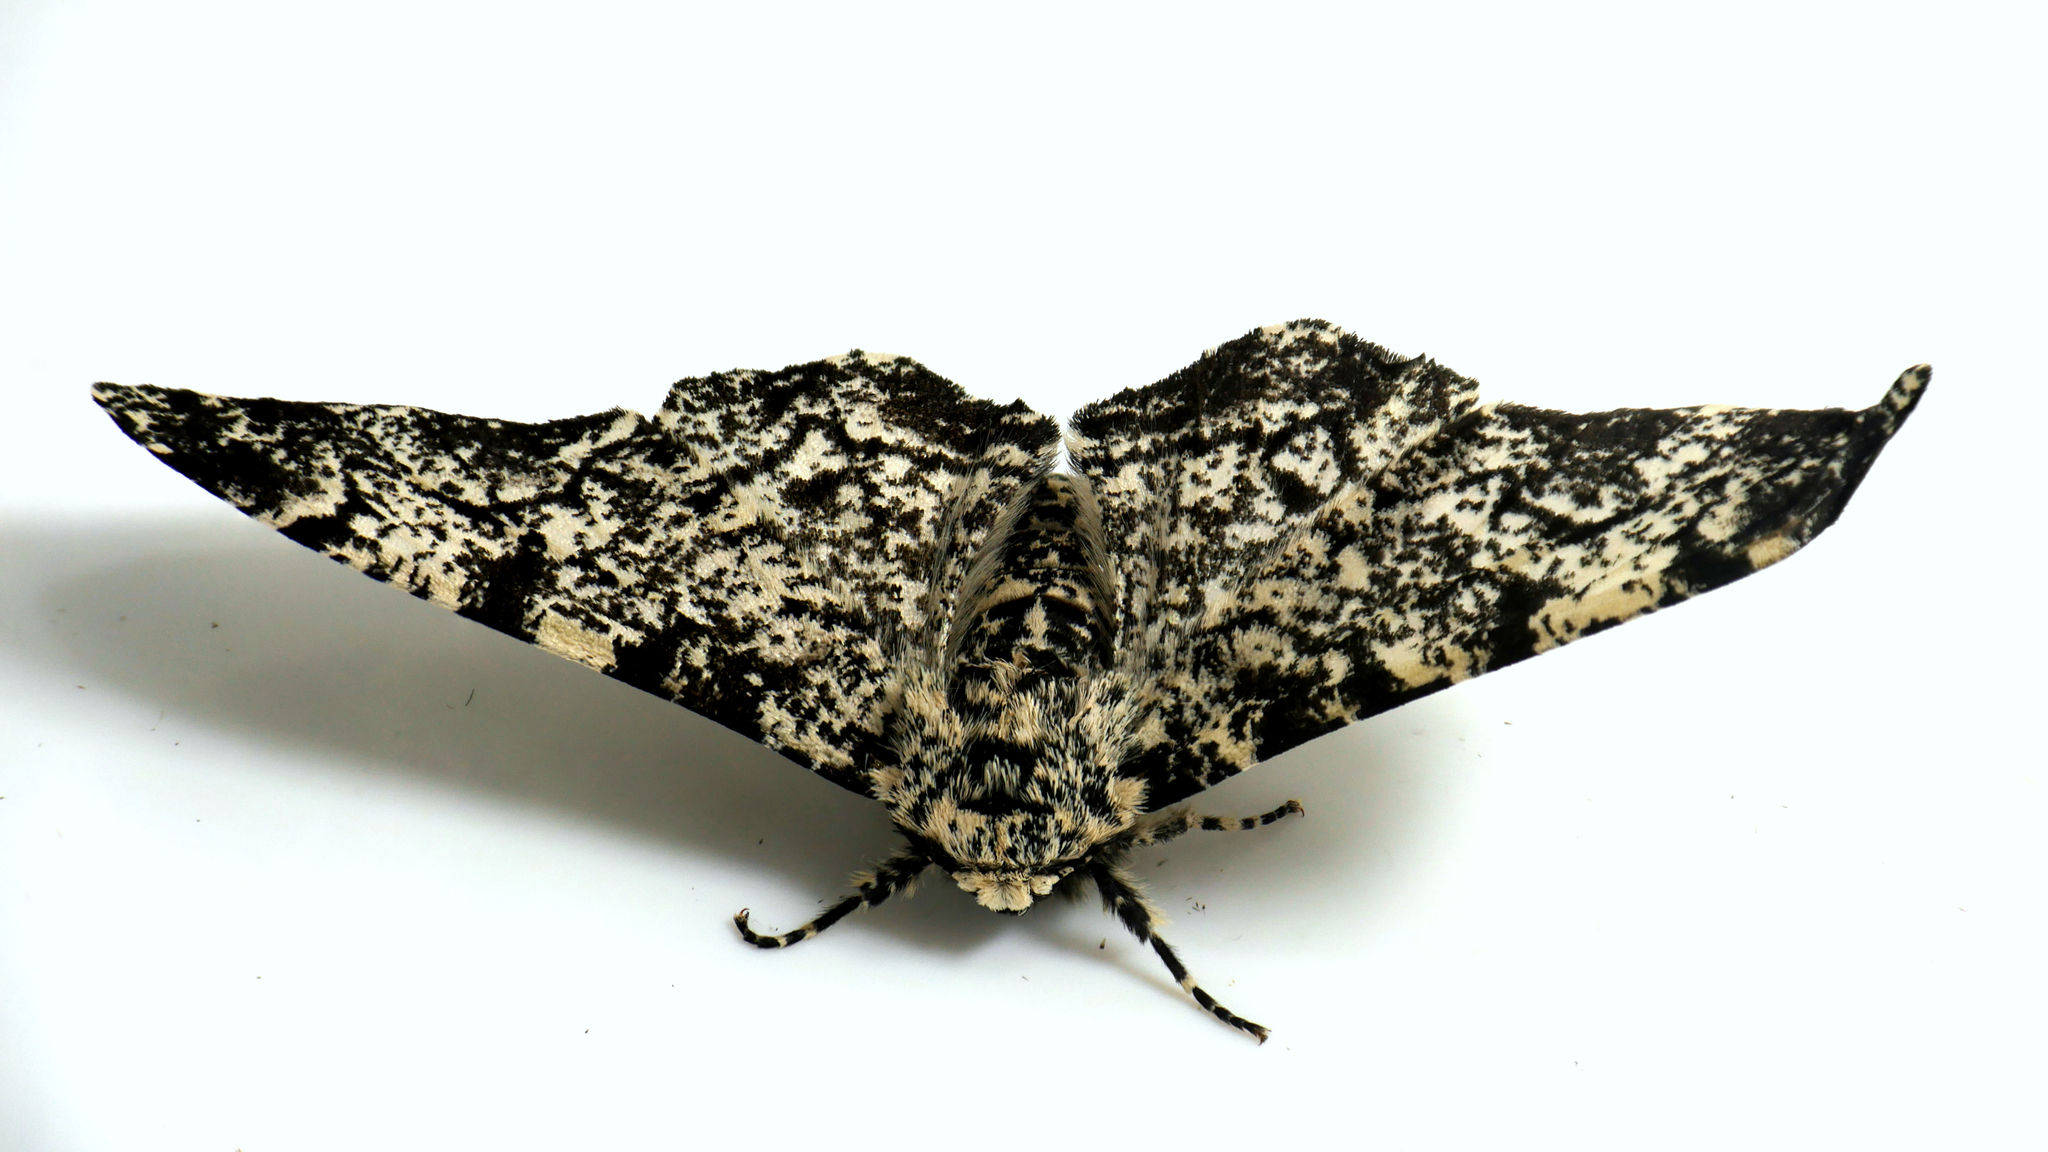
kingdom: Animalia
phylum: Arthropoda
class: Insecta
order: Lepidoptera
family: Geometridae
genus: Biston
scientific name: Biston betularia
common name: Peppered moth
